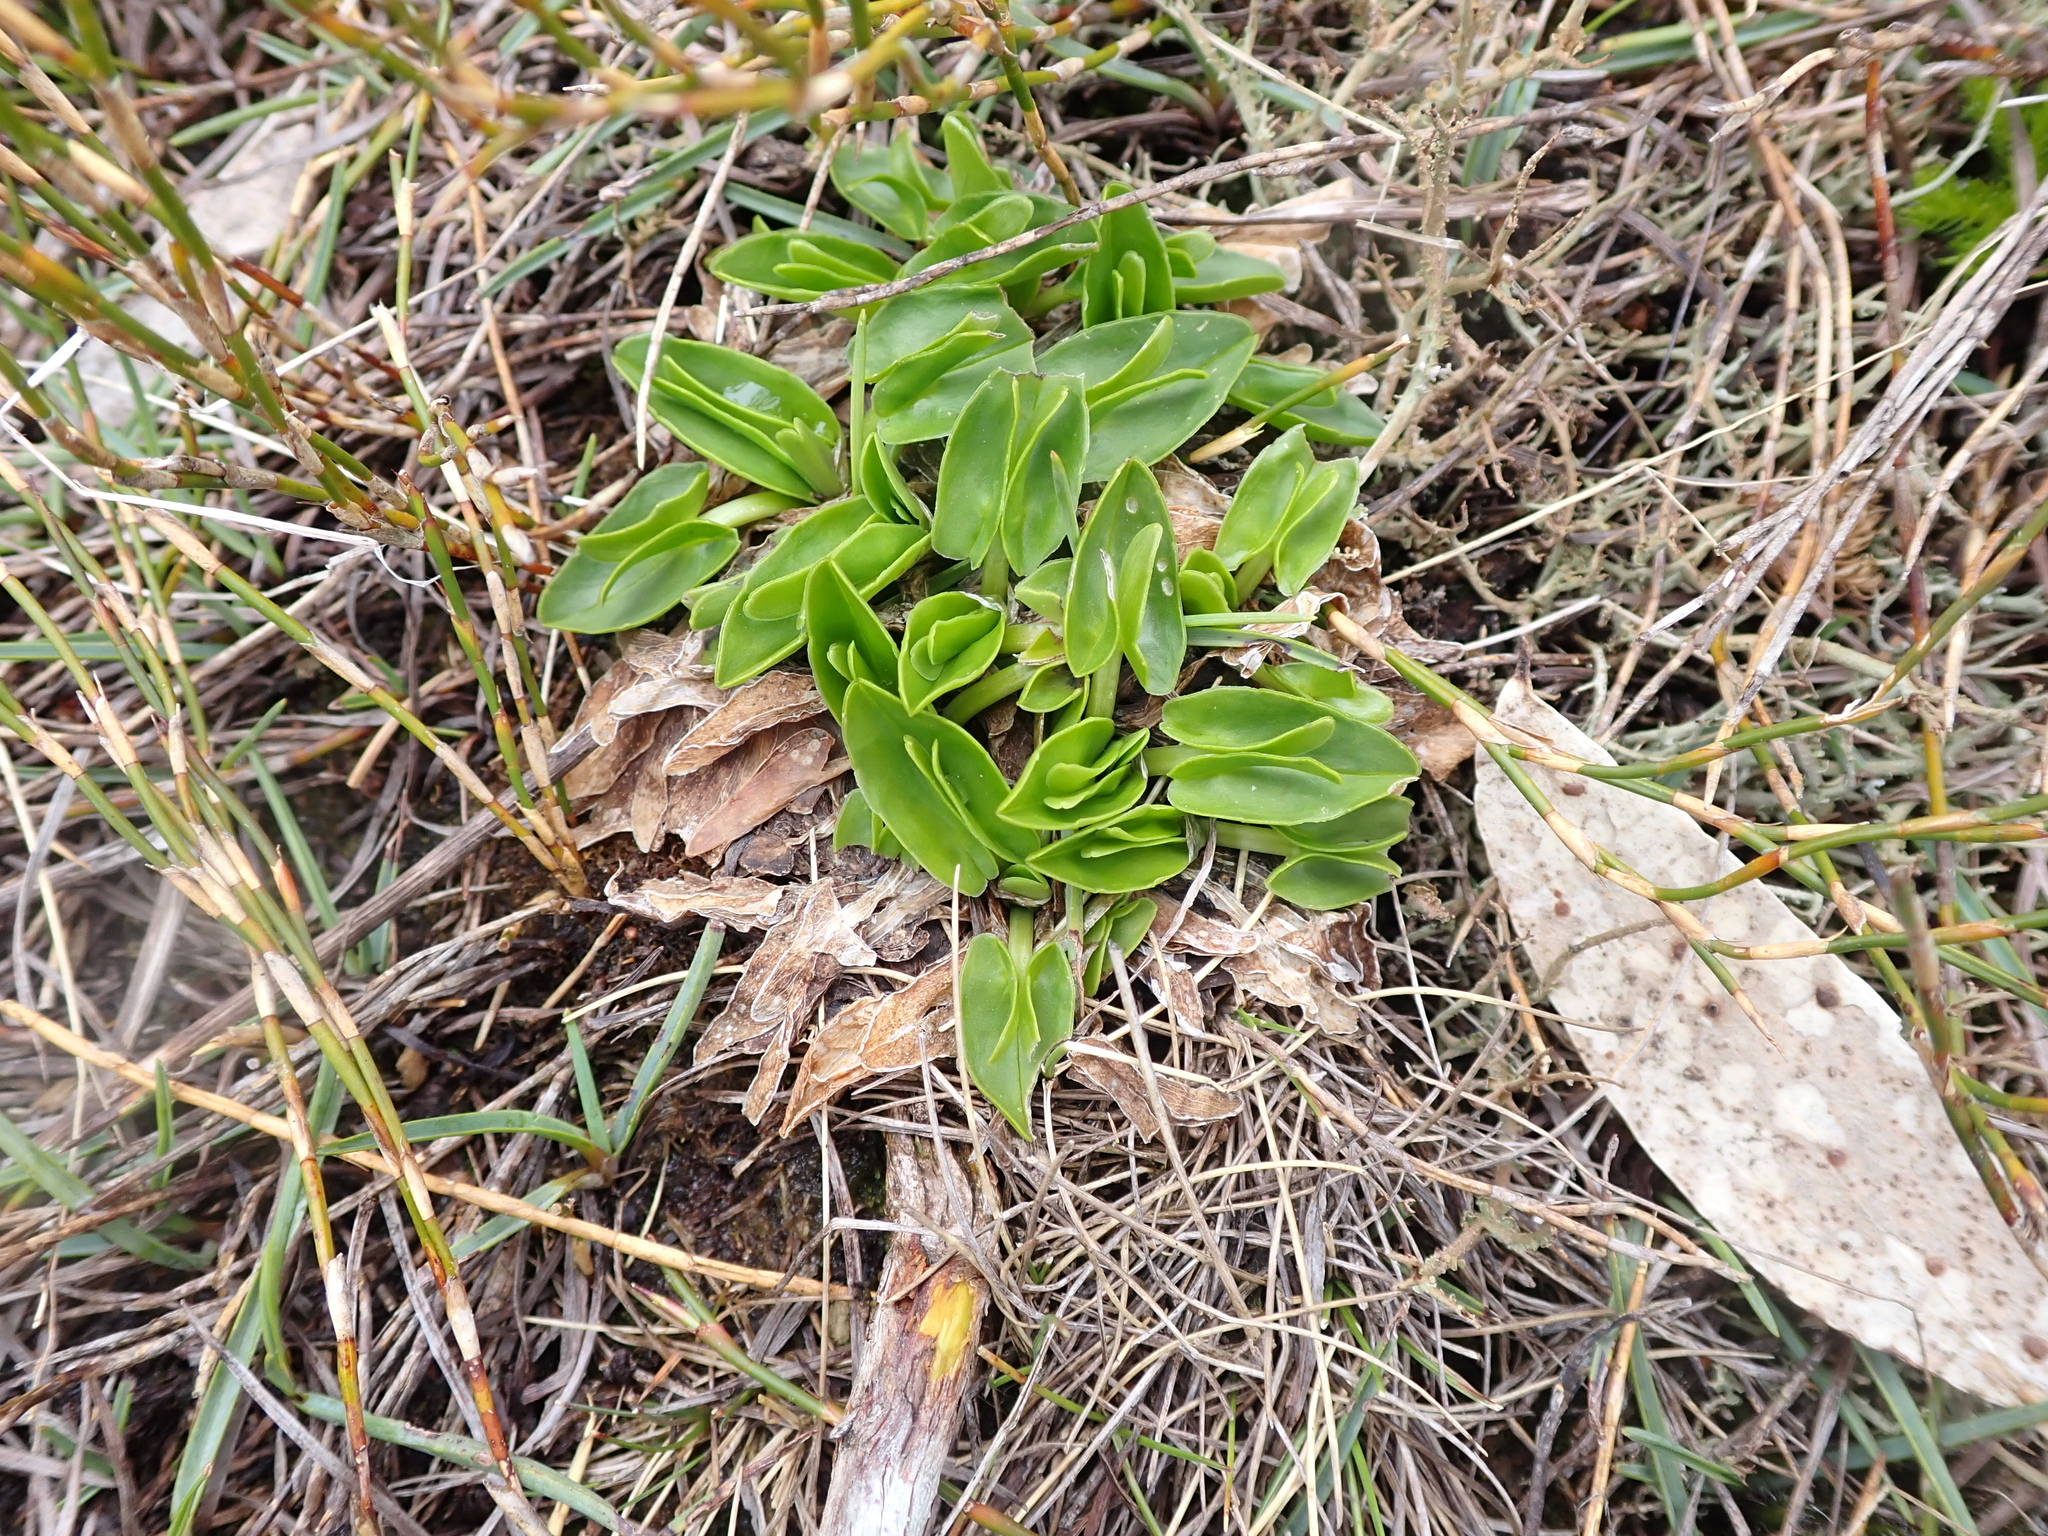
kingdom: Plantae
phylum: Tracheophyta
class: Magnoliopsida
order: Ranunculales
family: Ranunculaceae
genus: Caltha
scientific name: Caltha introloba
